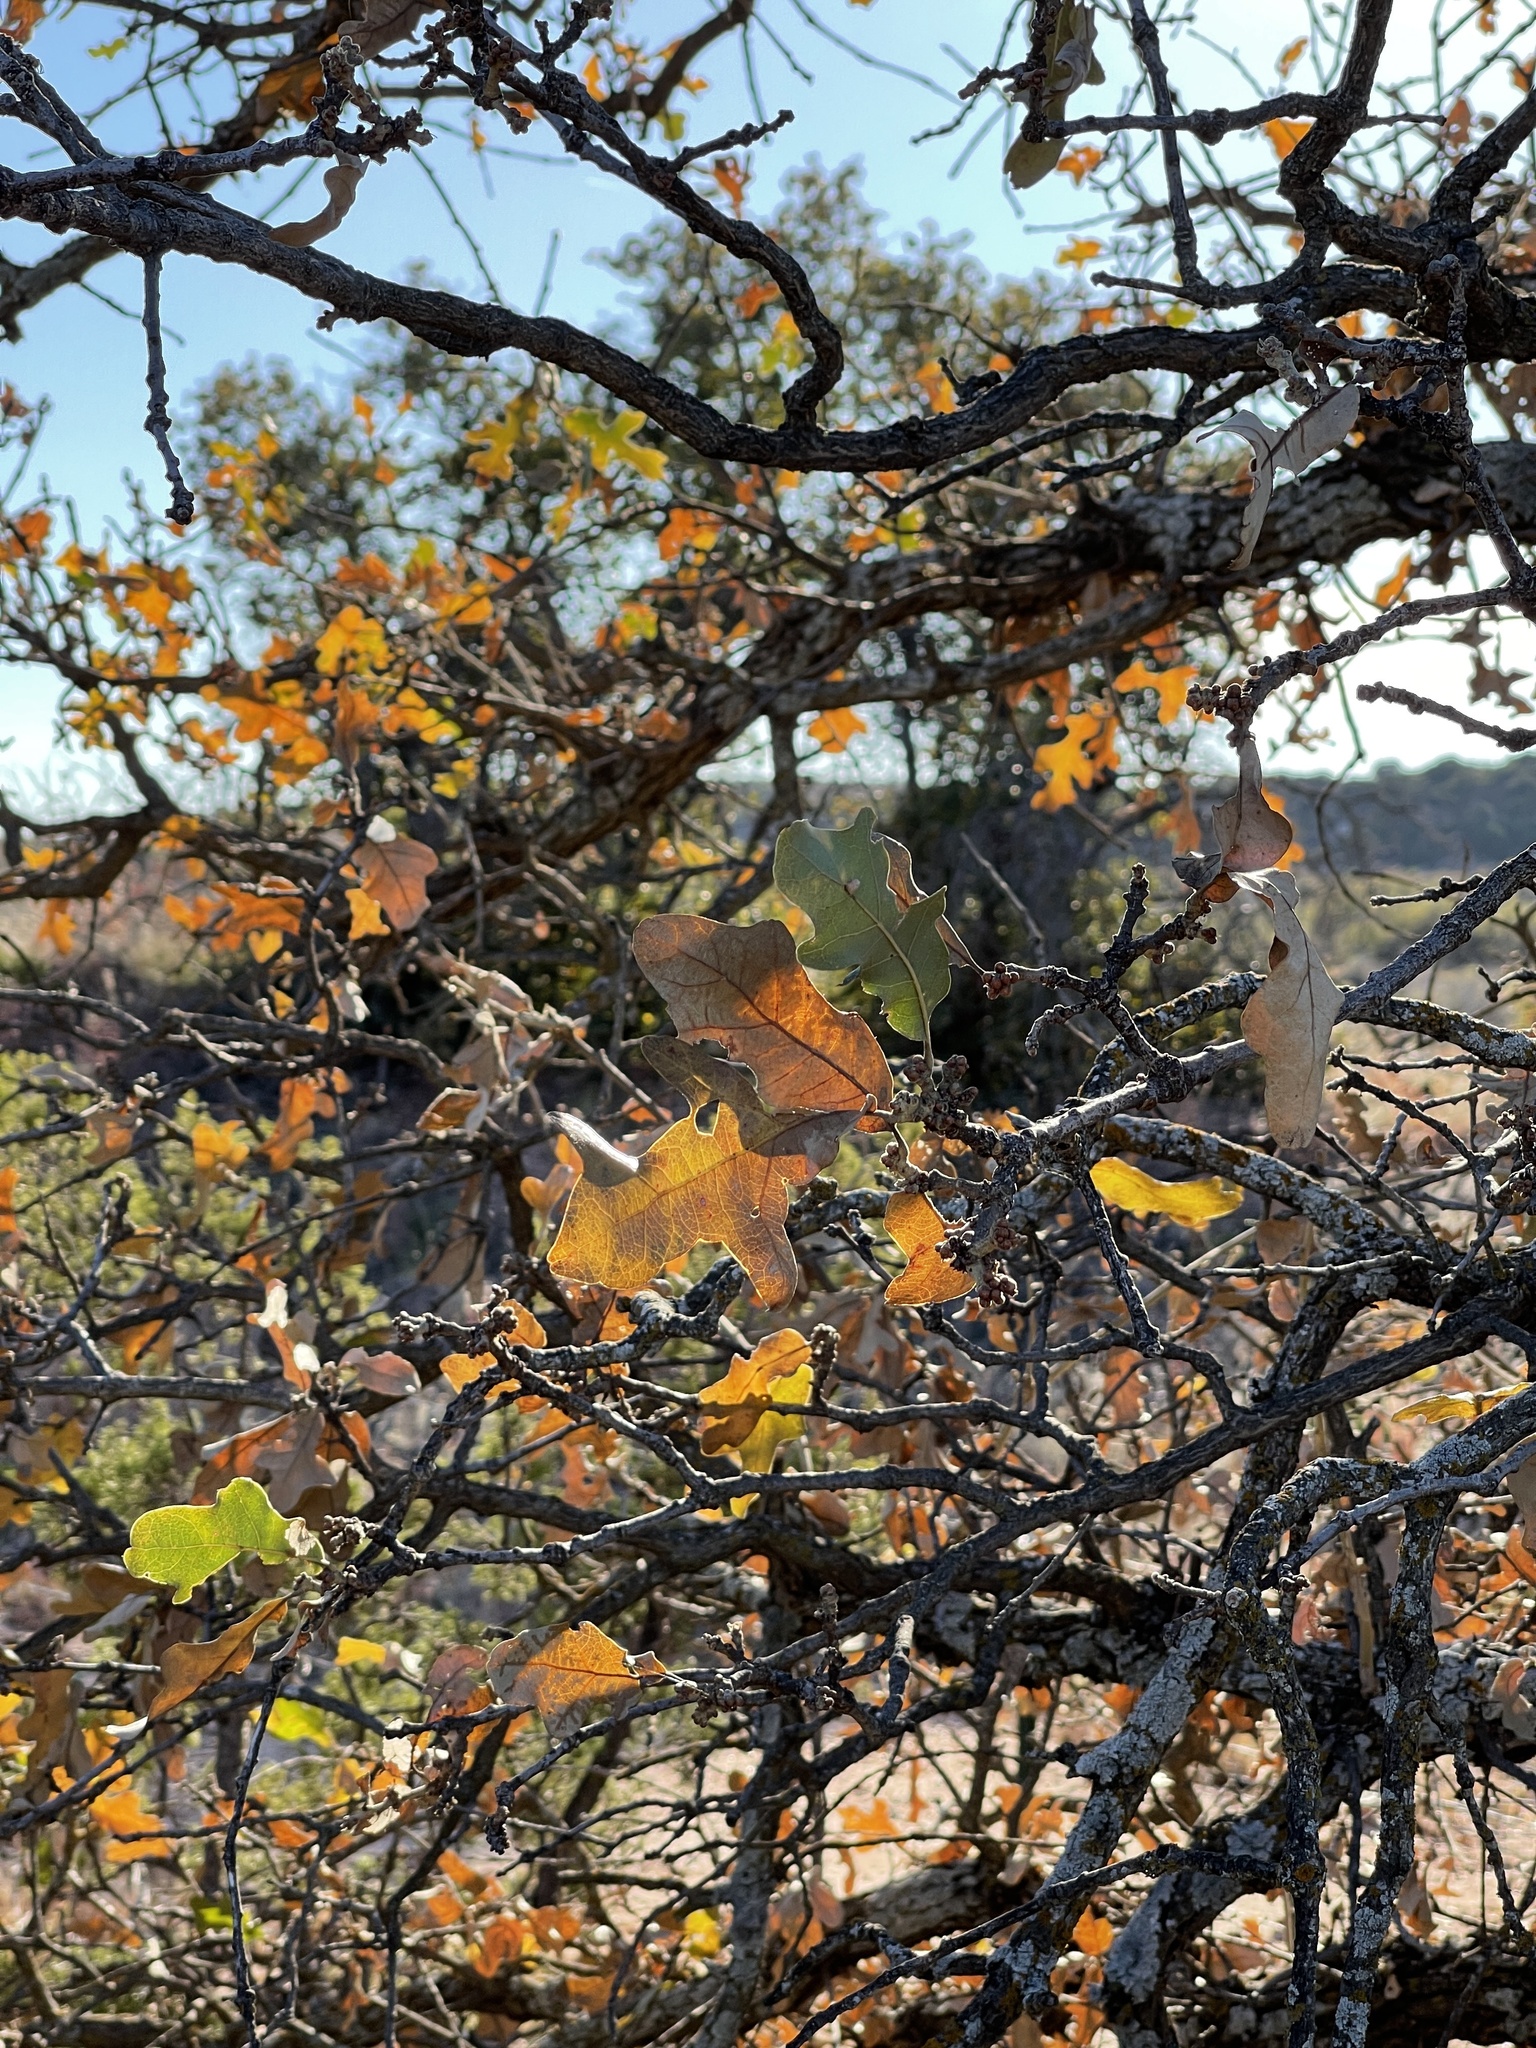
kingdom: Plantae
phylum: Tracheophyta
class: Magnoliopsida
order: Fagales
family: Fagaceae
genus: Quercus
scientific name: Quercus stellata
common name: Post oak
